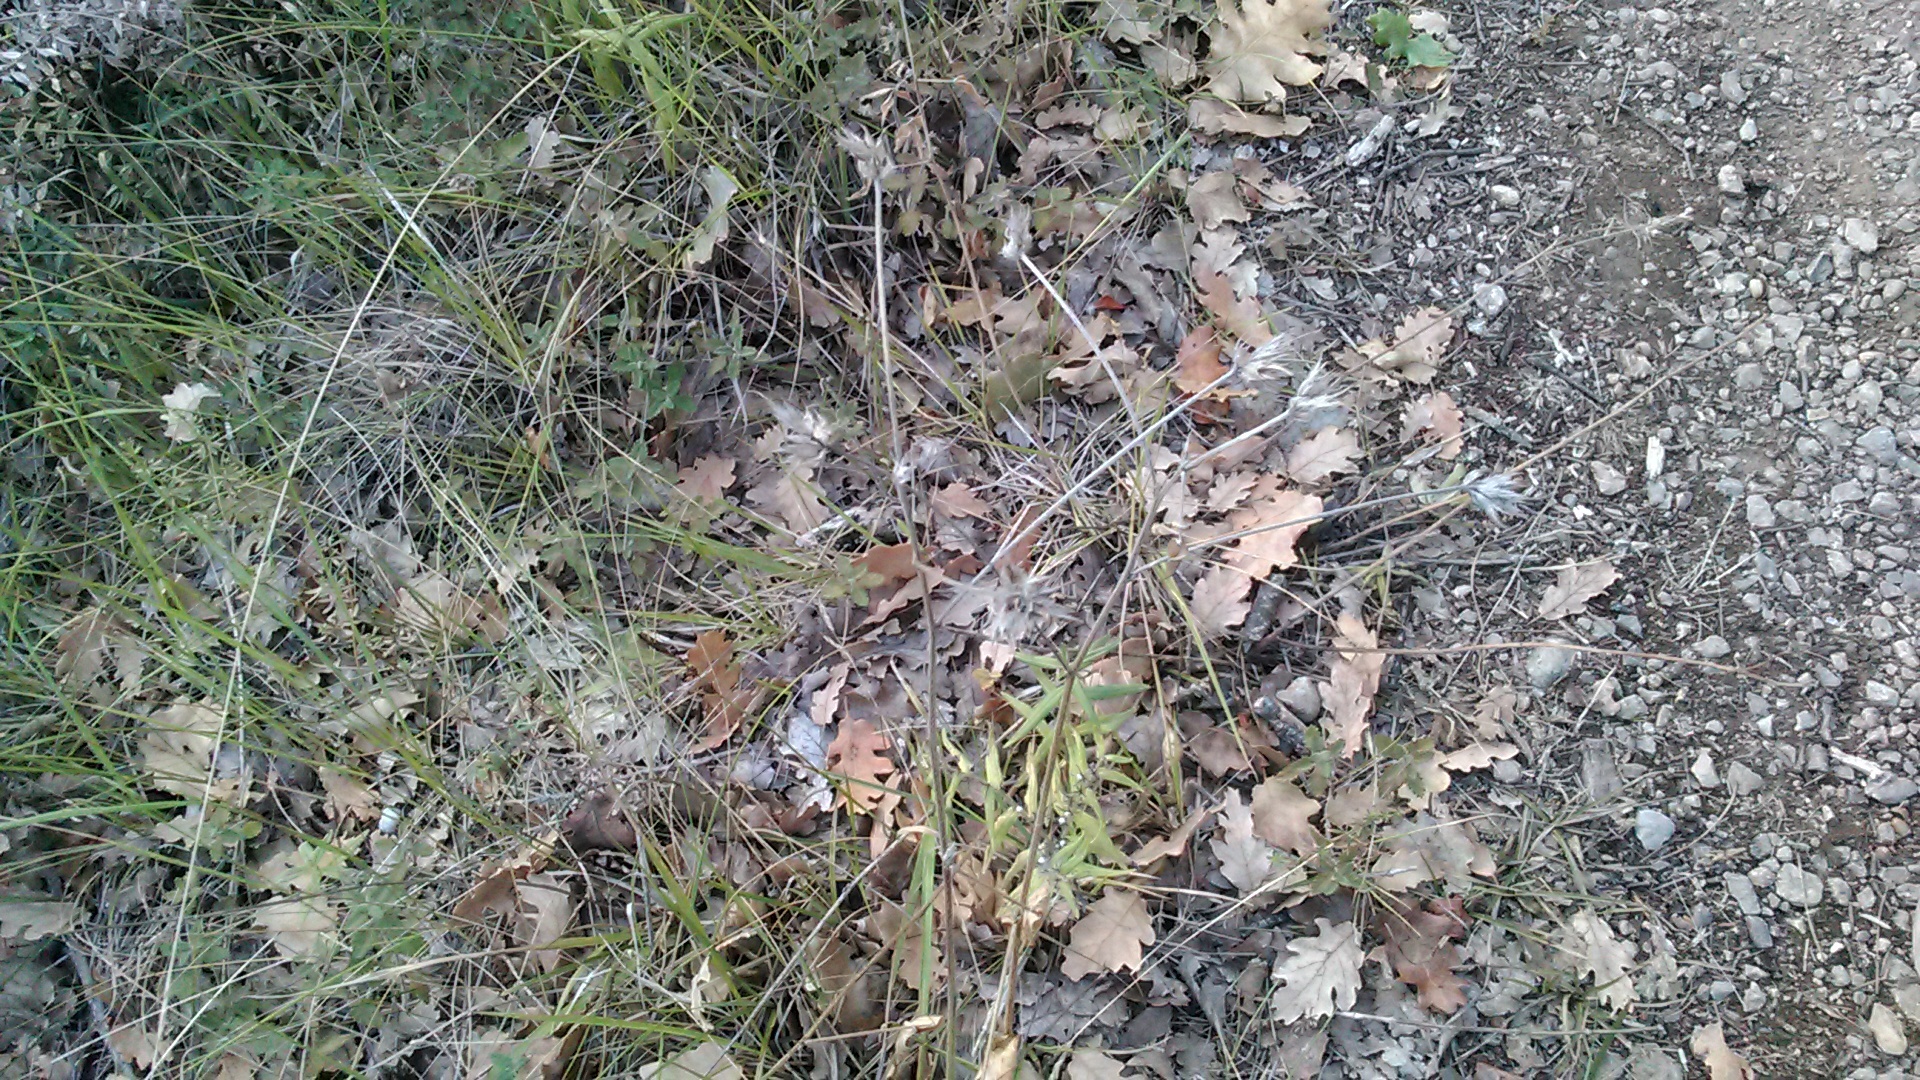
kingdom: Plantae
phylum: Tracheophyta
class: Magnoliopsida
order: Fabales
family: Fabaceae
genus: Bituminaria
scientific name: Bituminaria bituminosa
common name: Arabian pea
